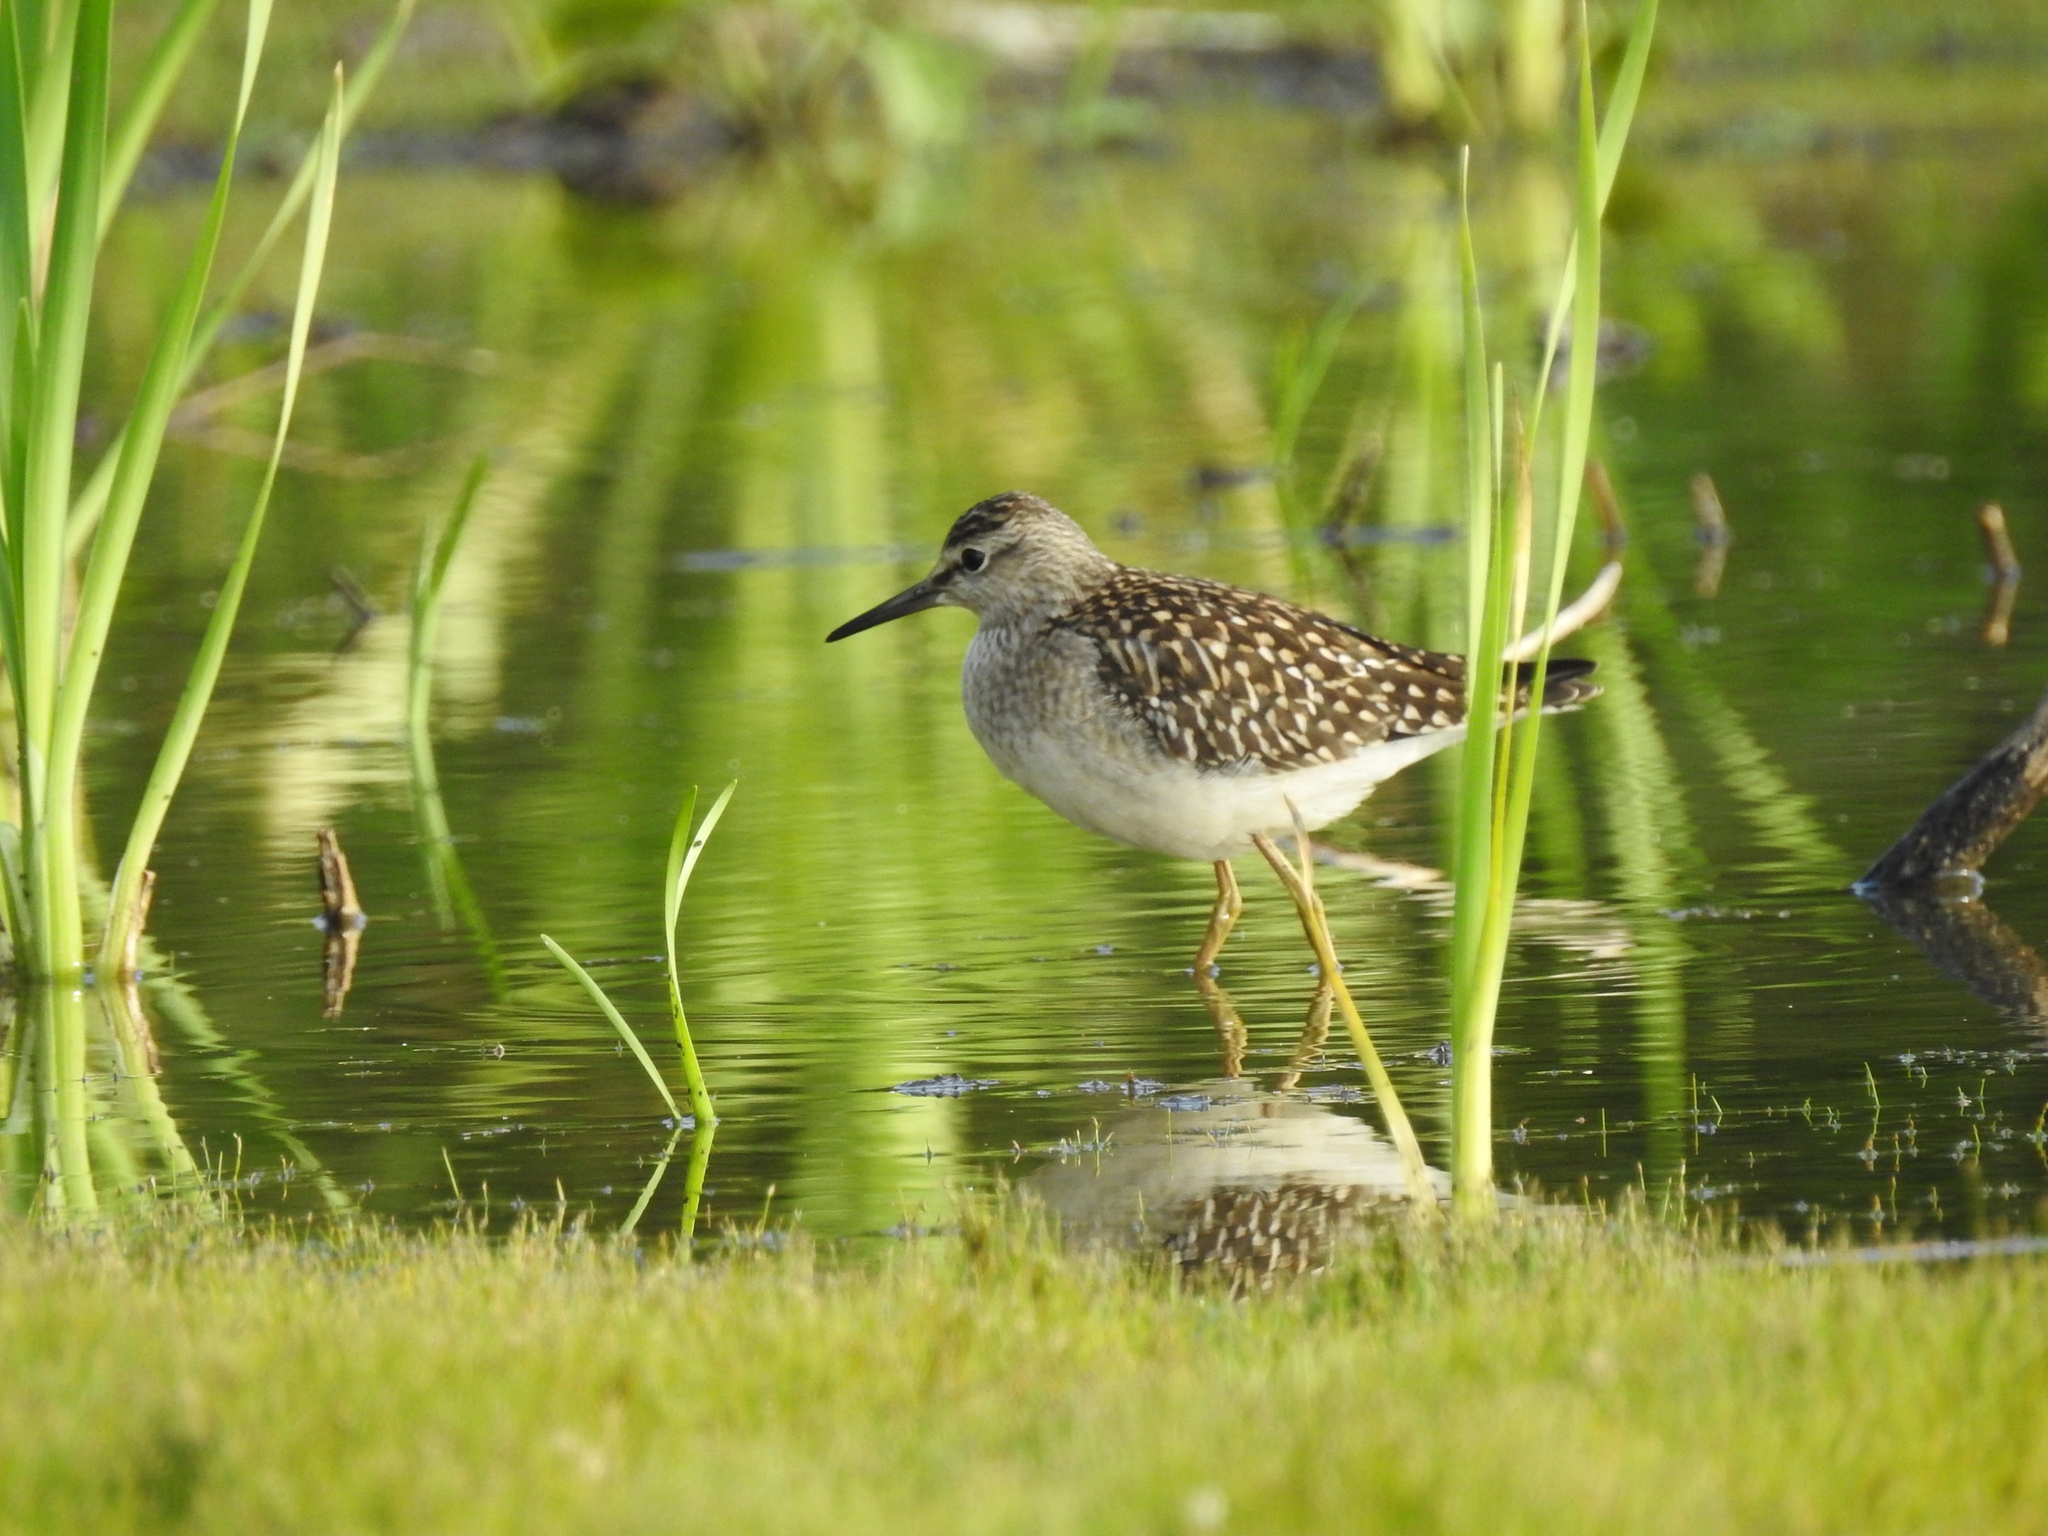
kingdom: Animalia
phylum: Chordata
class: Aves
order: Charadriiformes
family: Scolopacidae
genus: Tringa
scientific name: Tringa glareola
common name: Wood sandpiper
